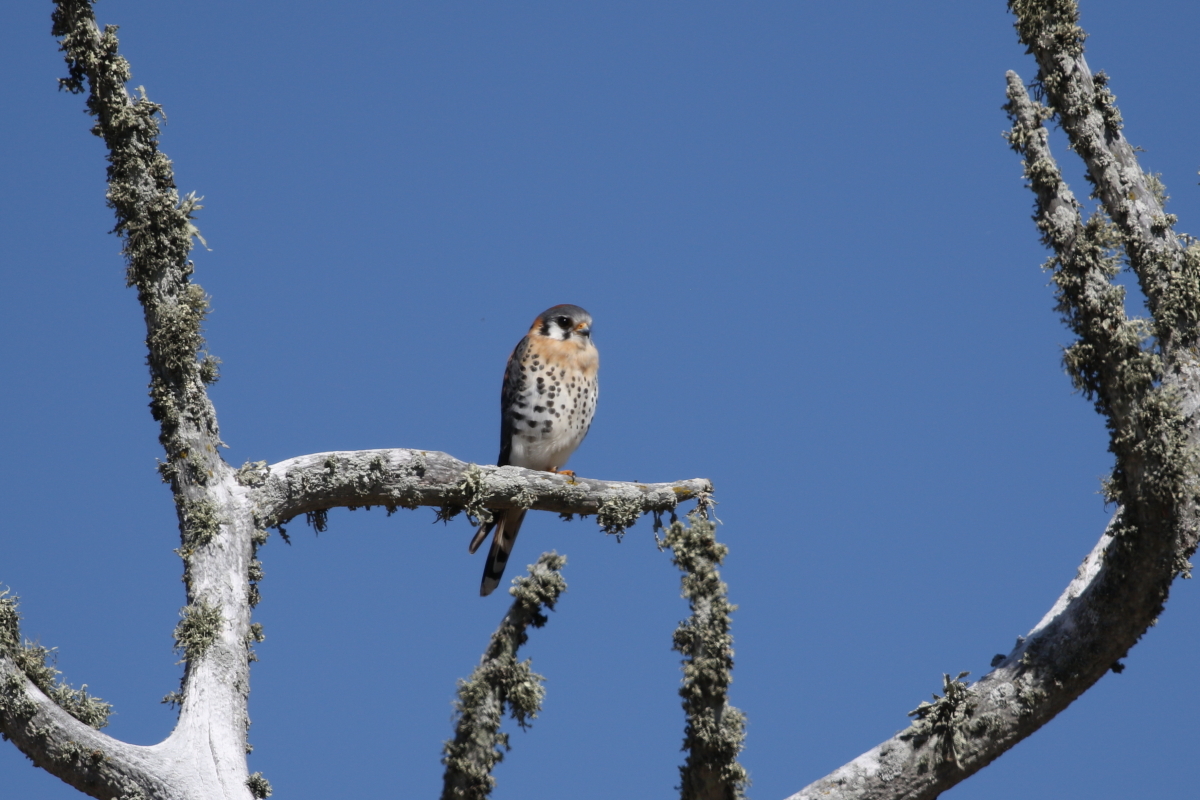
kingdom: Animalia
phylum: Chordata
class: Aves
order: Falconiformes
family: Falconidae
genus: Falco
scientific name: Falco sparverius
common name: American kestrel
